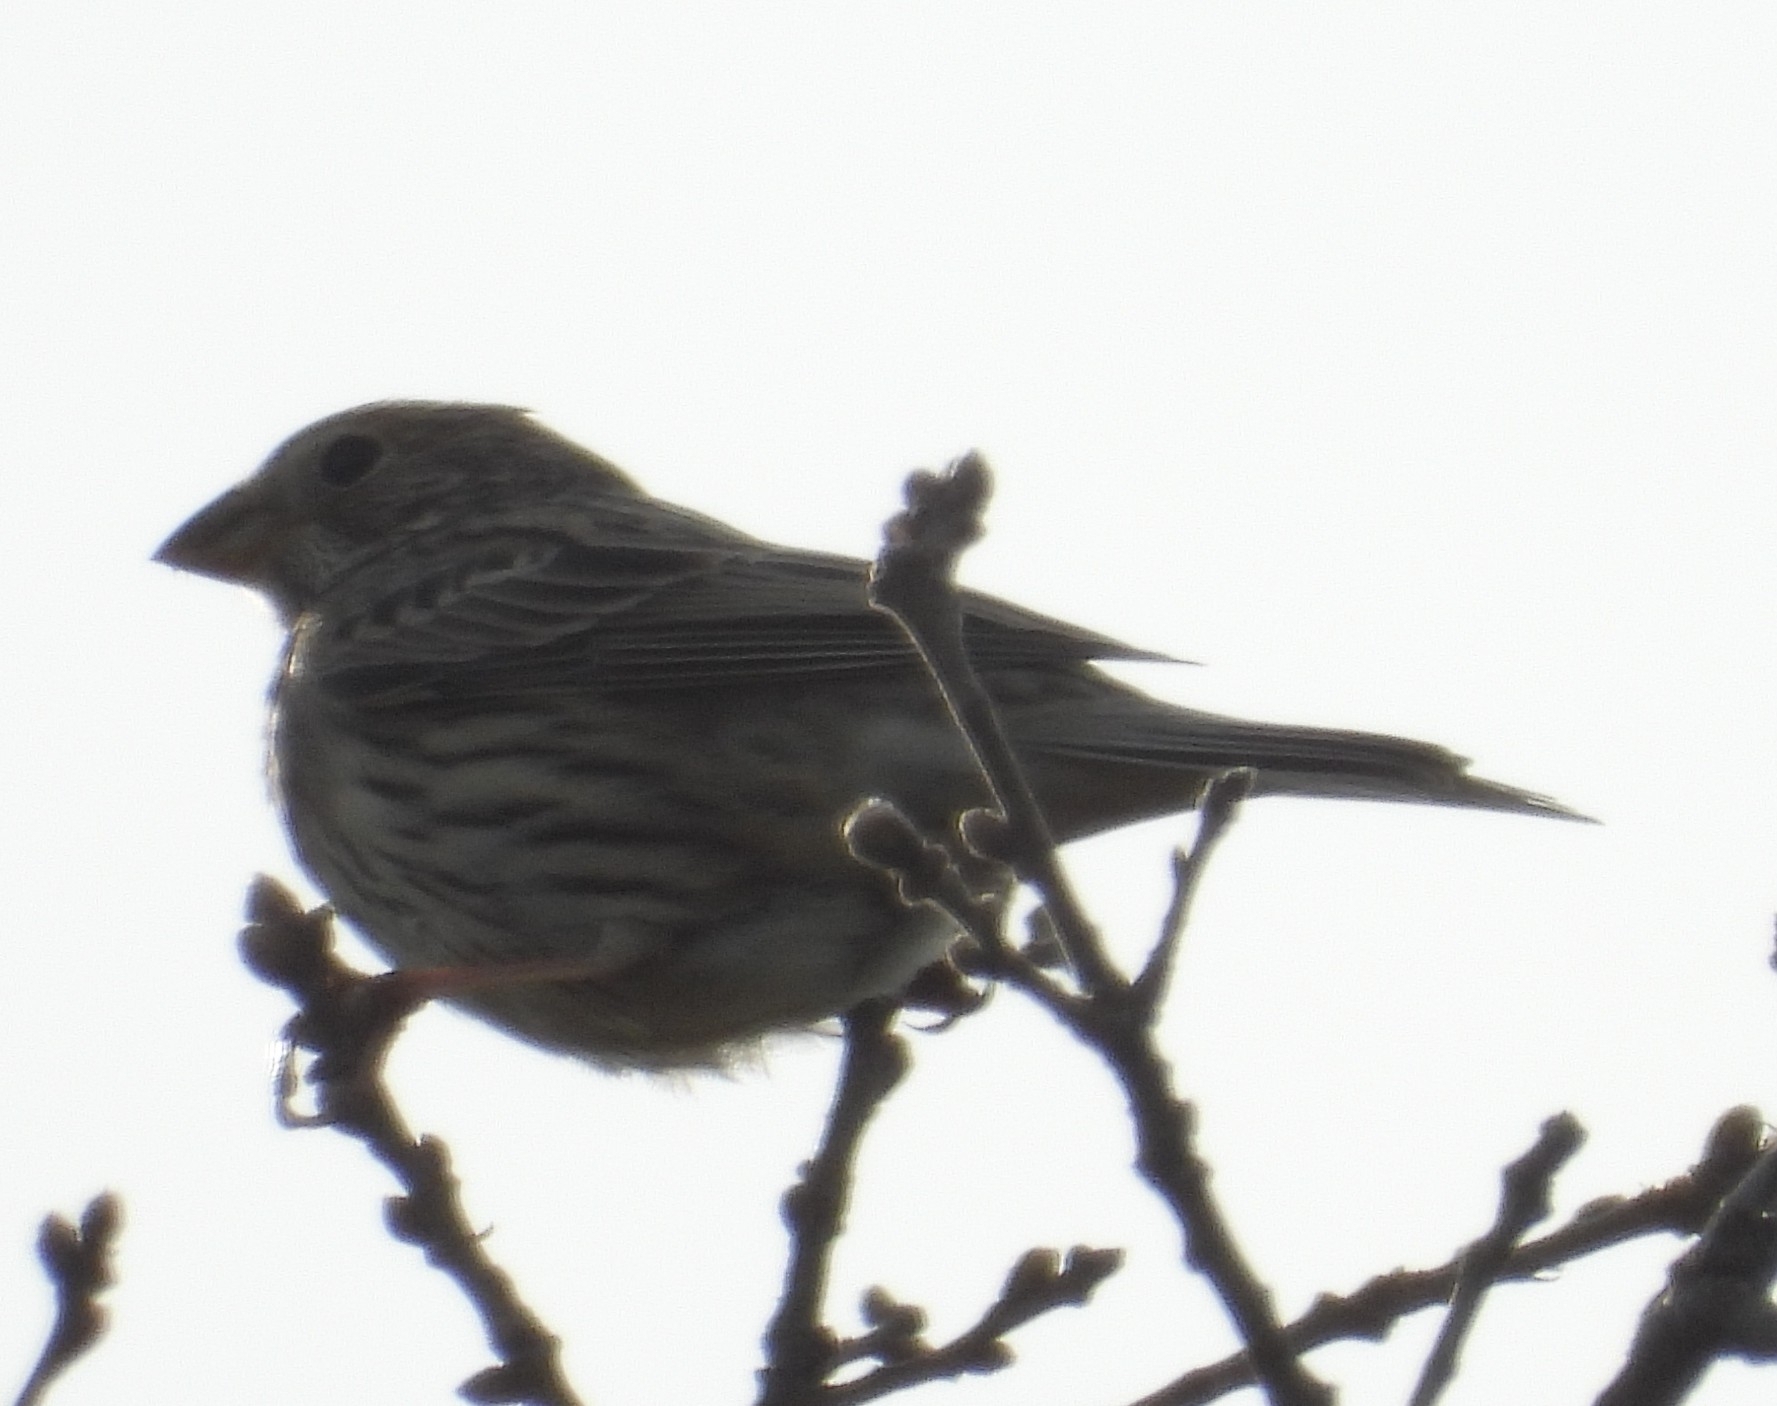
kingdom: Animalia
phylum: Chordata
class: Aves
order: Passeriformes
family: Emberizidae
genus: Emberiza
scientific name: Emberiza calandra
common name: Corn bunting
